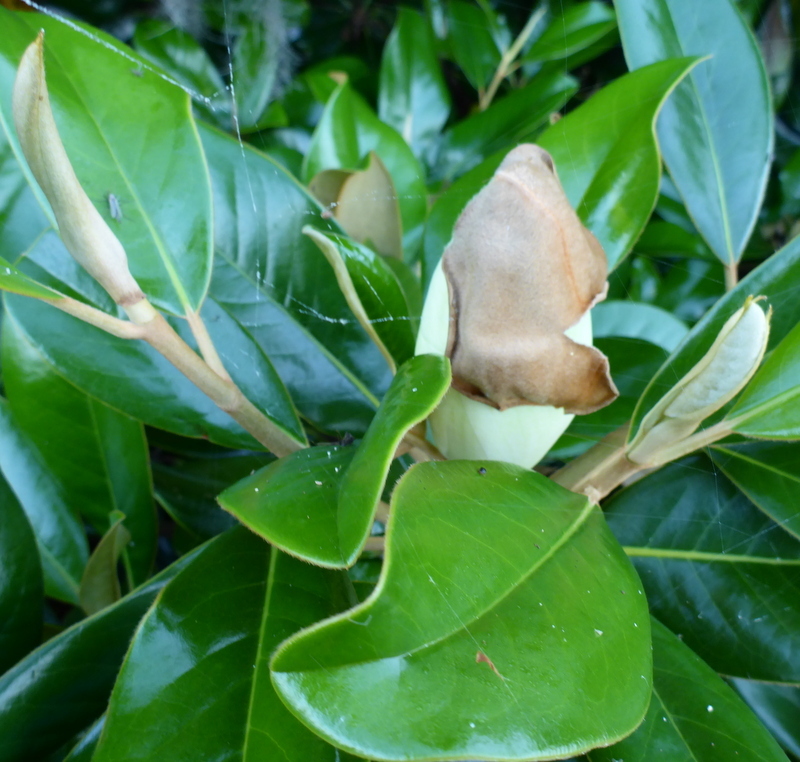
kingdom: Plantae
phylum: Tracheophyta
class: Magnoliopsida
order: Magnoliales
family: Magnoliaceae
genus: Magnolia
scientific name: Magnolia grandiflora
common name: Southern magnolia
